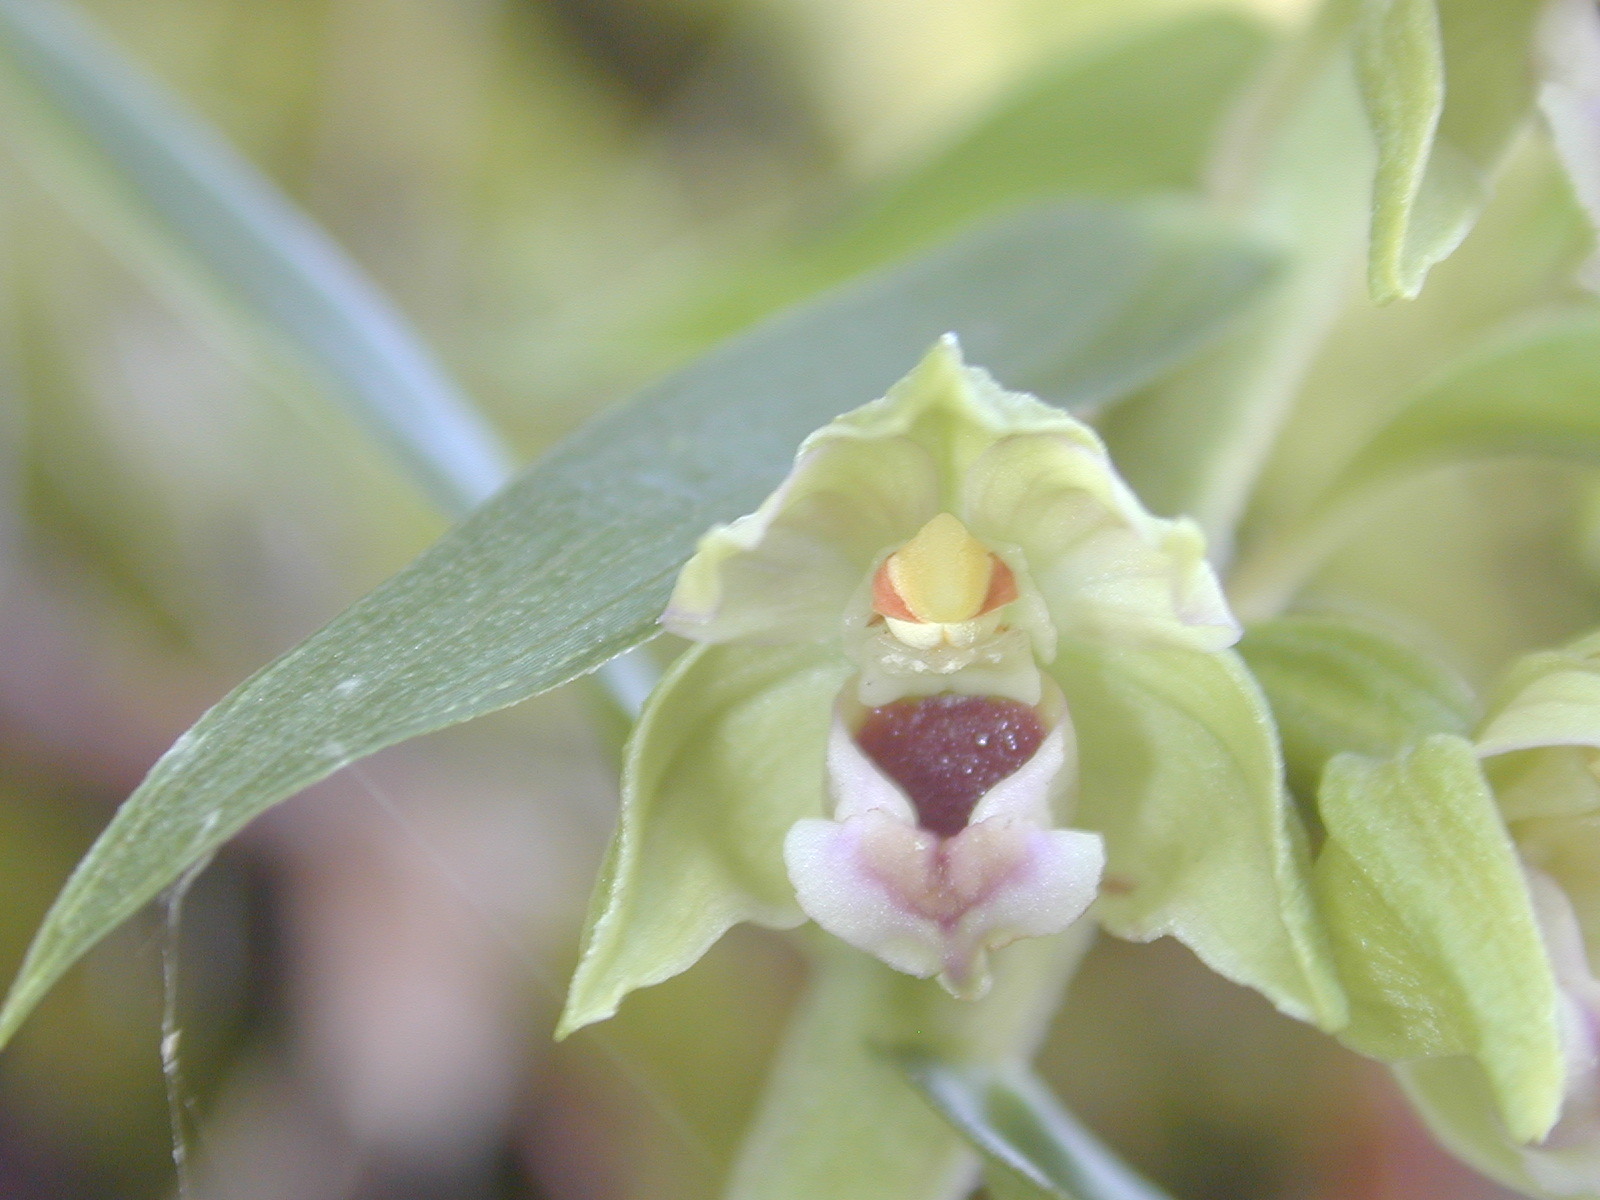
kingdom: Plantae
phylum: Tracheophyta
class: Liliopsida
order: Asparagales
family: Orchidaceae
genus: Epipactis
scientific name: Epipactis helleborine
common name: Broad-leaved helleborine
